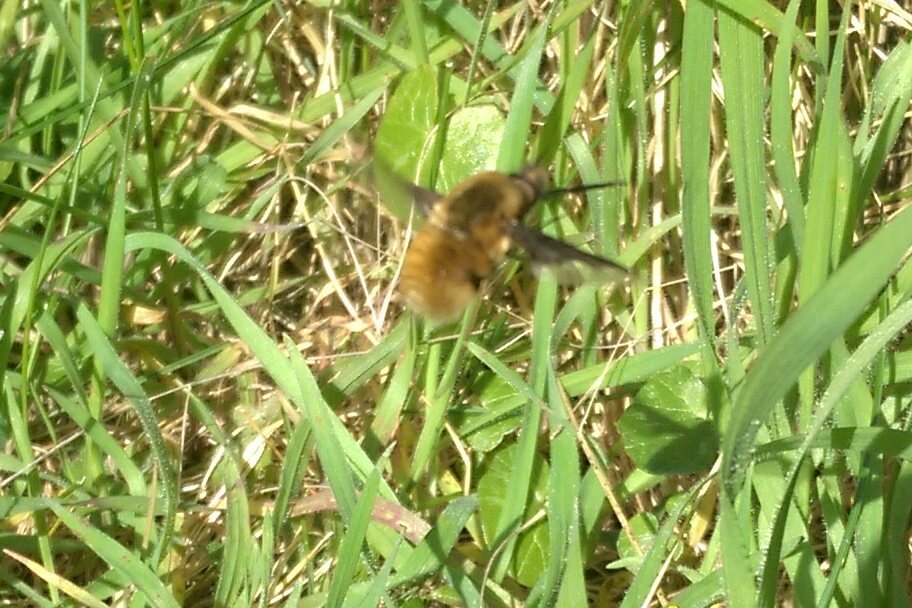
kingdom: Animalia
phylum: Arthropoda
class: Insecta
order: Diptera
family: Bombyliidae
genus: Bombylius
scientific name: Bombylius major
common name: Bee fly
